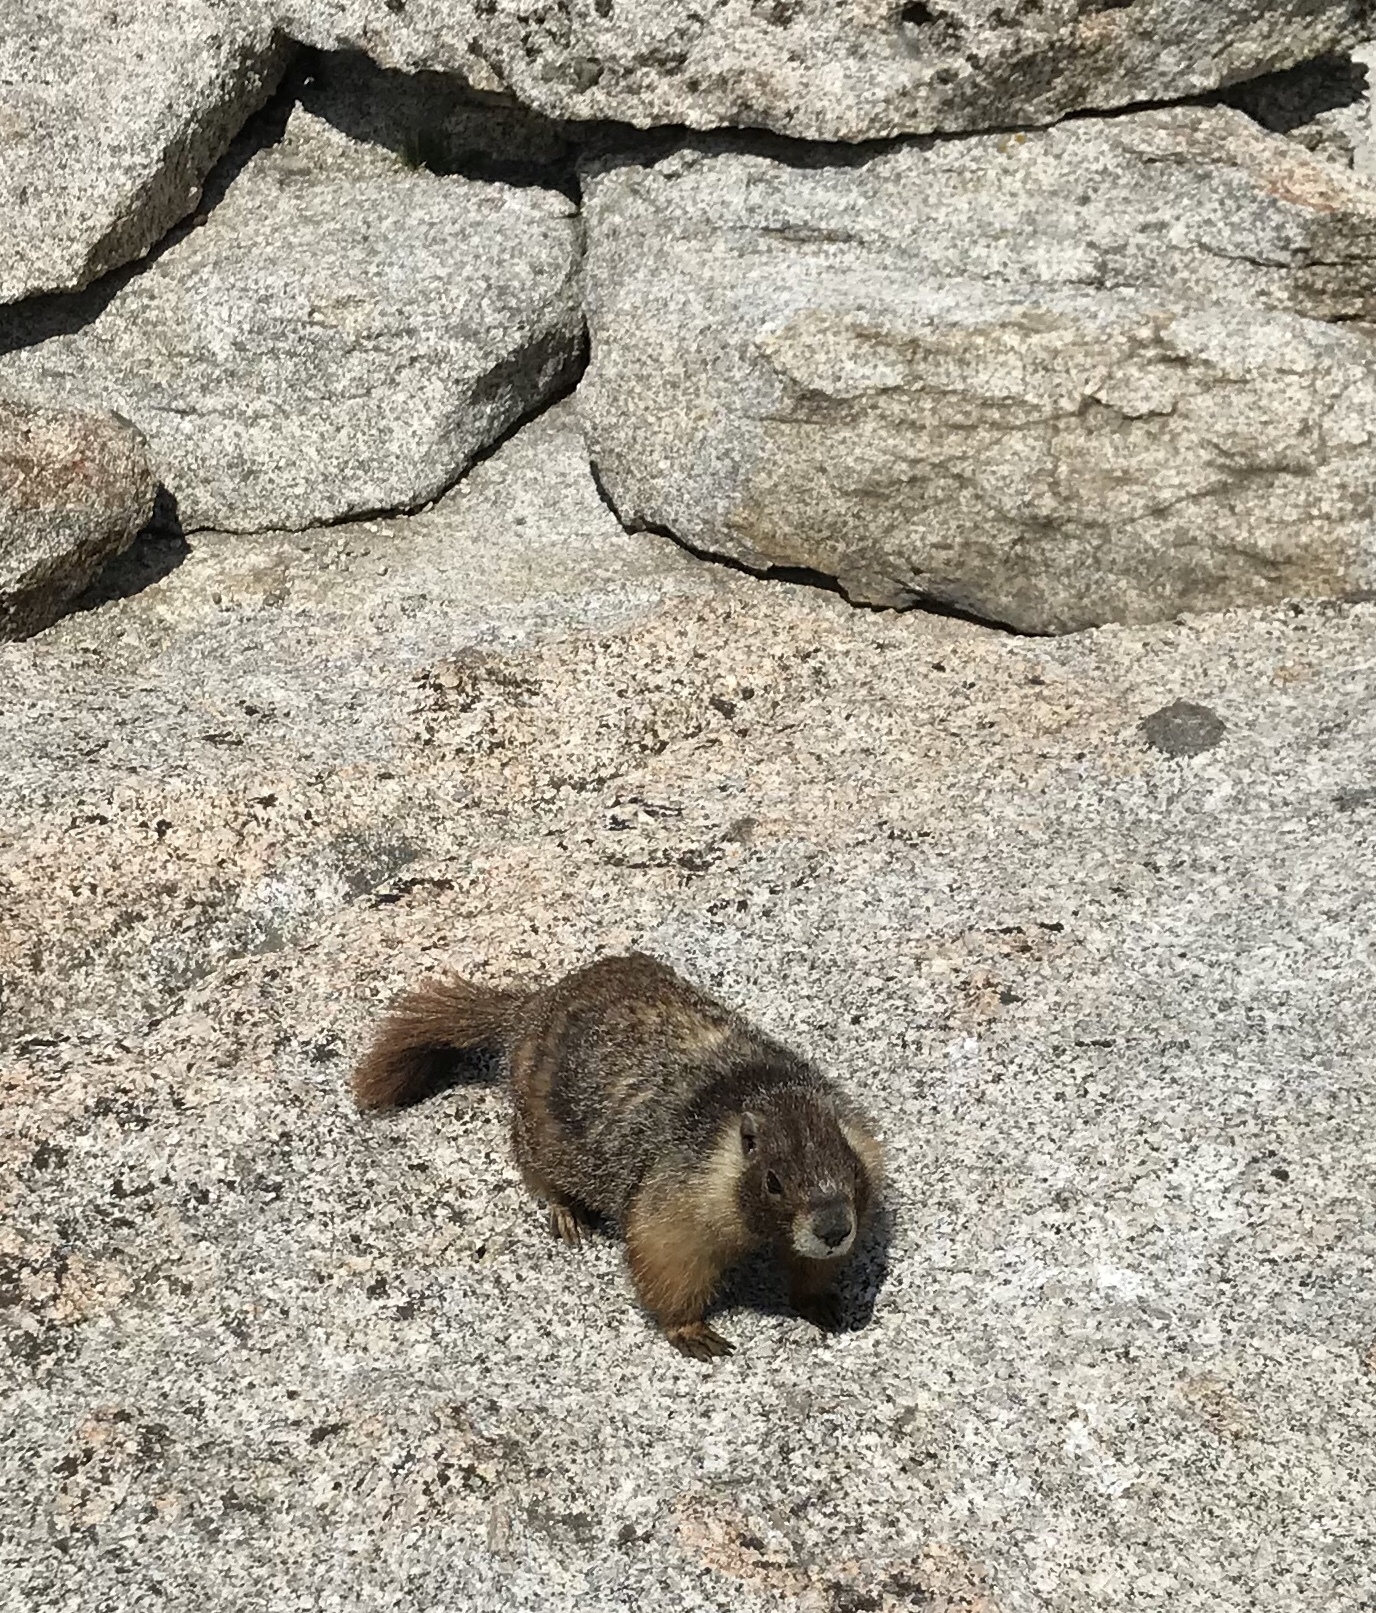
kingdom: Animalia
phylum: Chordata
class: Mammalia
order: Rodentia
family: Sciuridae
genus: Marmota
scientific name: Marmota flaviventris
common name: Yellow-bellied marmot
